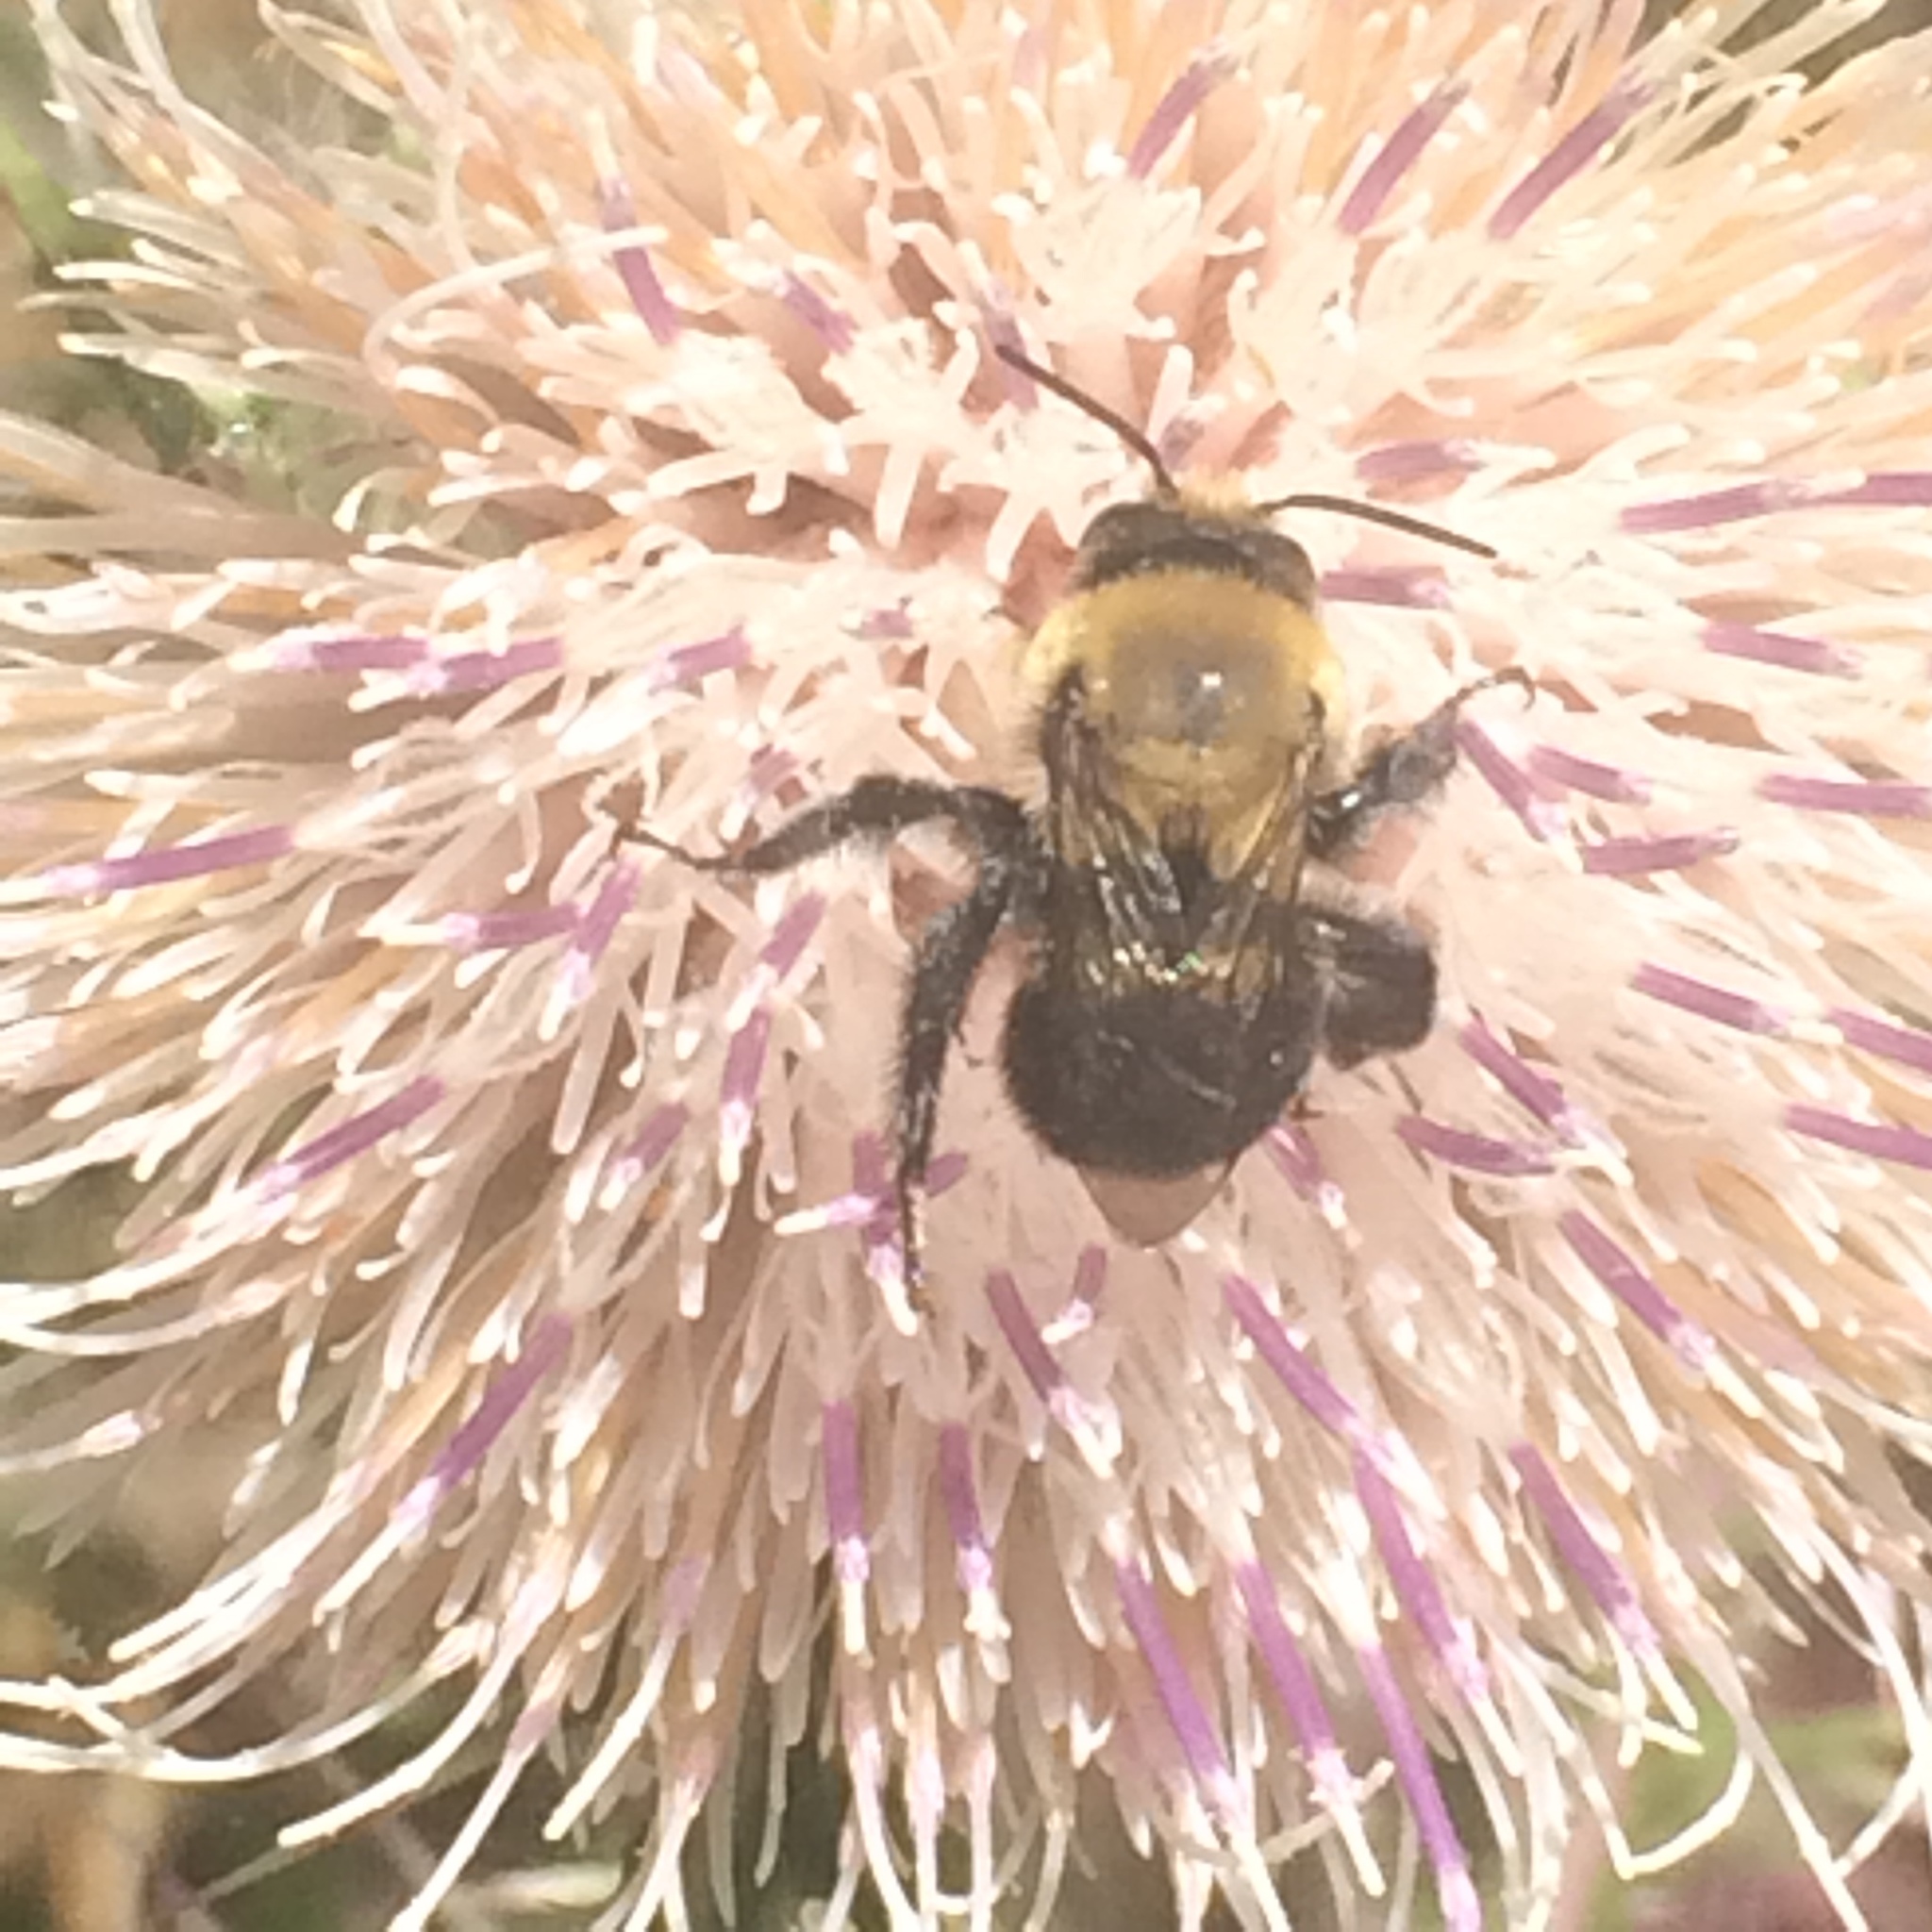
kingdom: Animalia
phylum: Arthropoda
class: Insecta
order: Hymenoptera
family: Apidae
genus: Habropoda
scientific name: Habropoda laboriosa
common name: Southeastern blueberry bee
